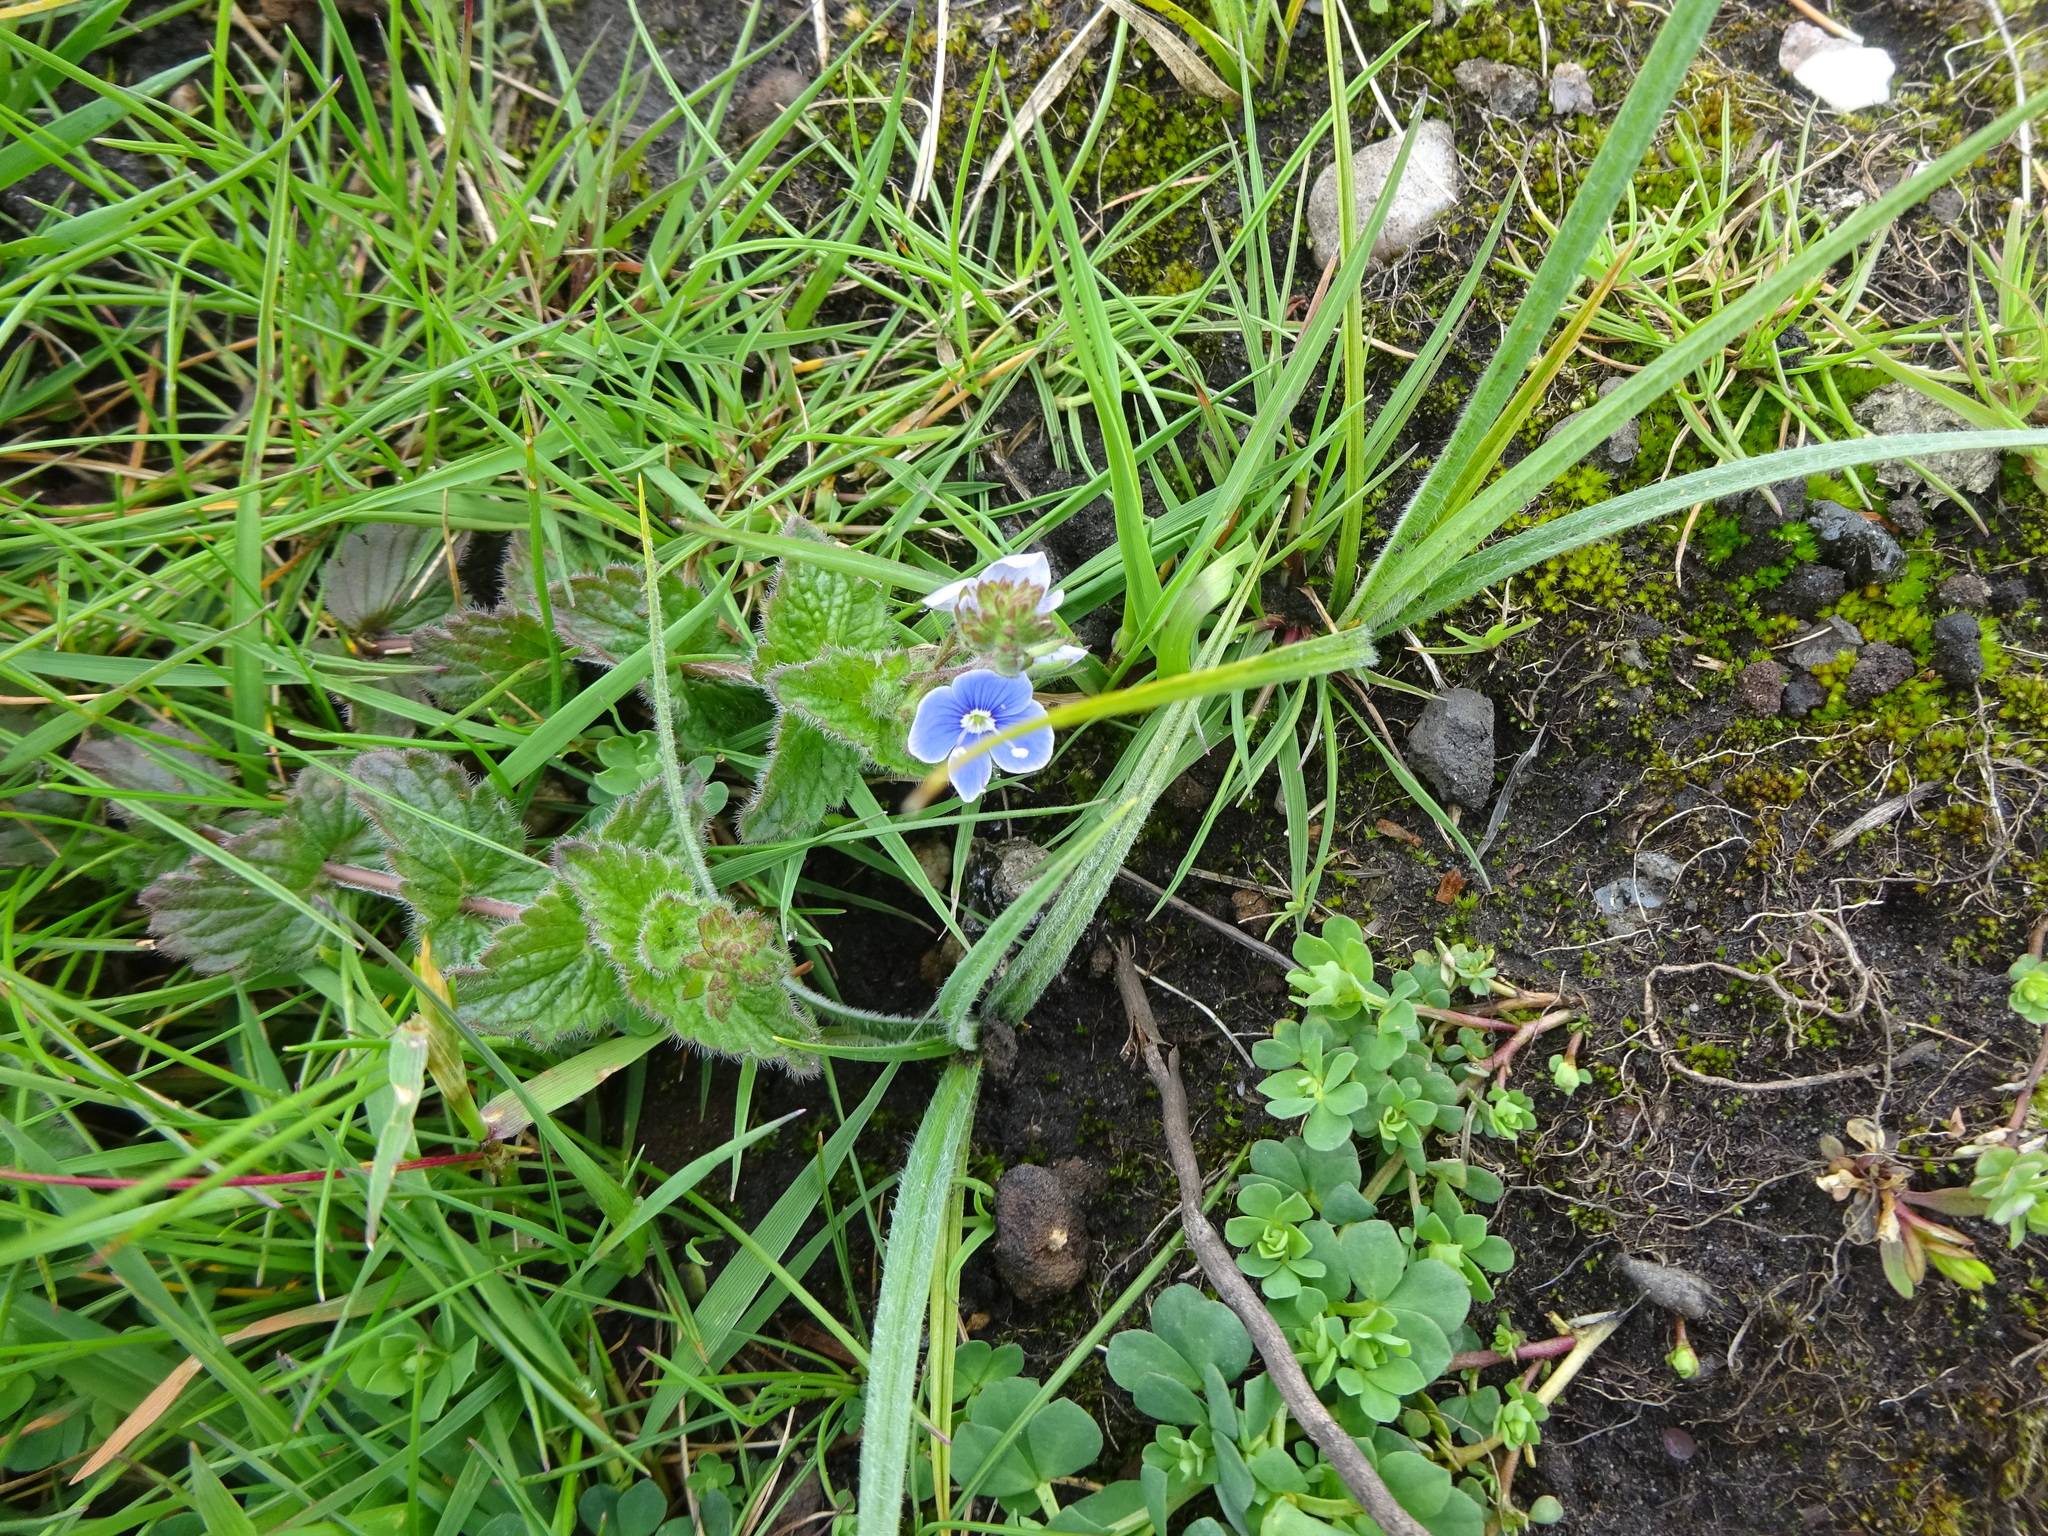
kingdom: Plantae
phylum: Tracheophyta
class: Magnoliopsida
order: Lamiales
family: Plantaginaceae
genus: Veronica
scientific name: Veronica chamaedrys
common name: Germander speedwell
